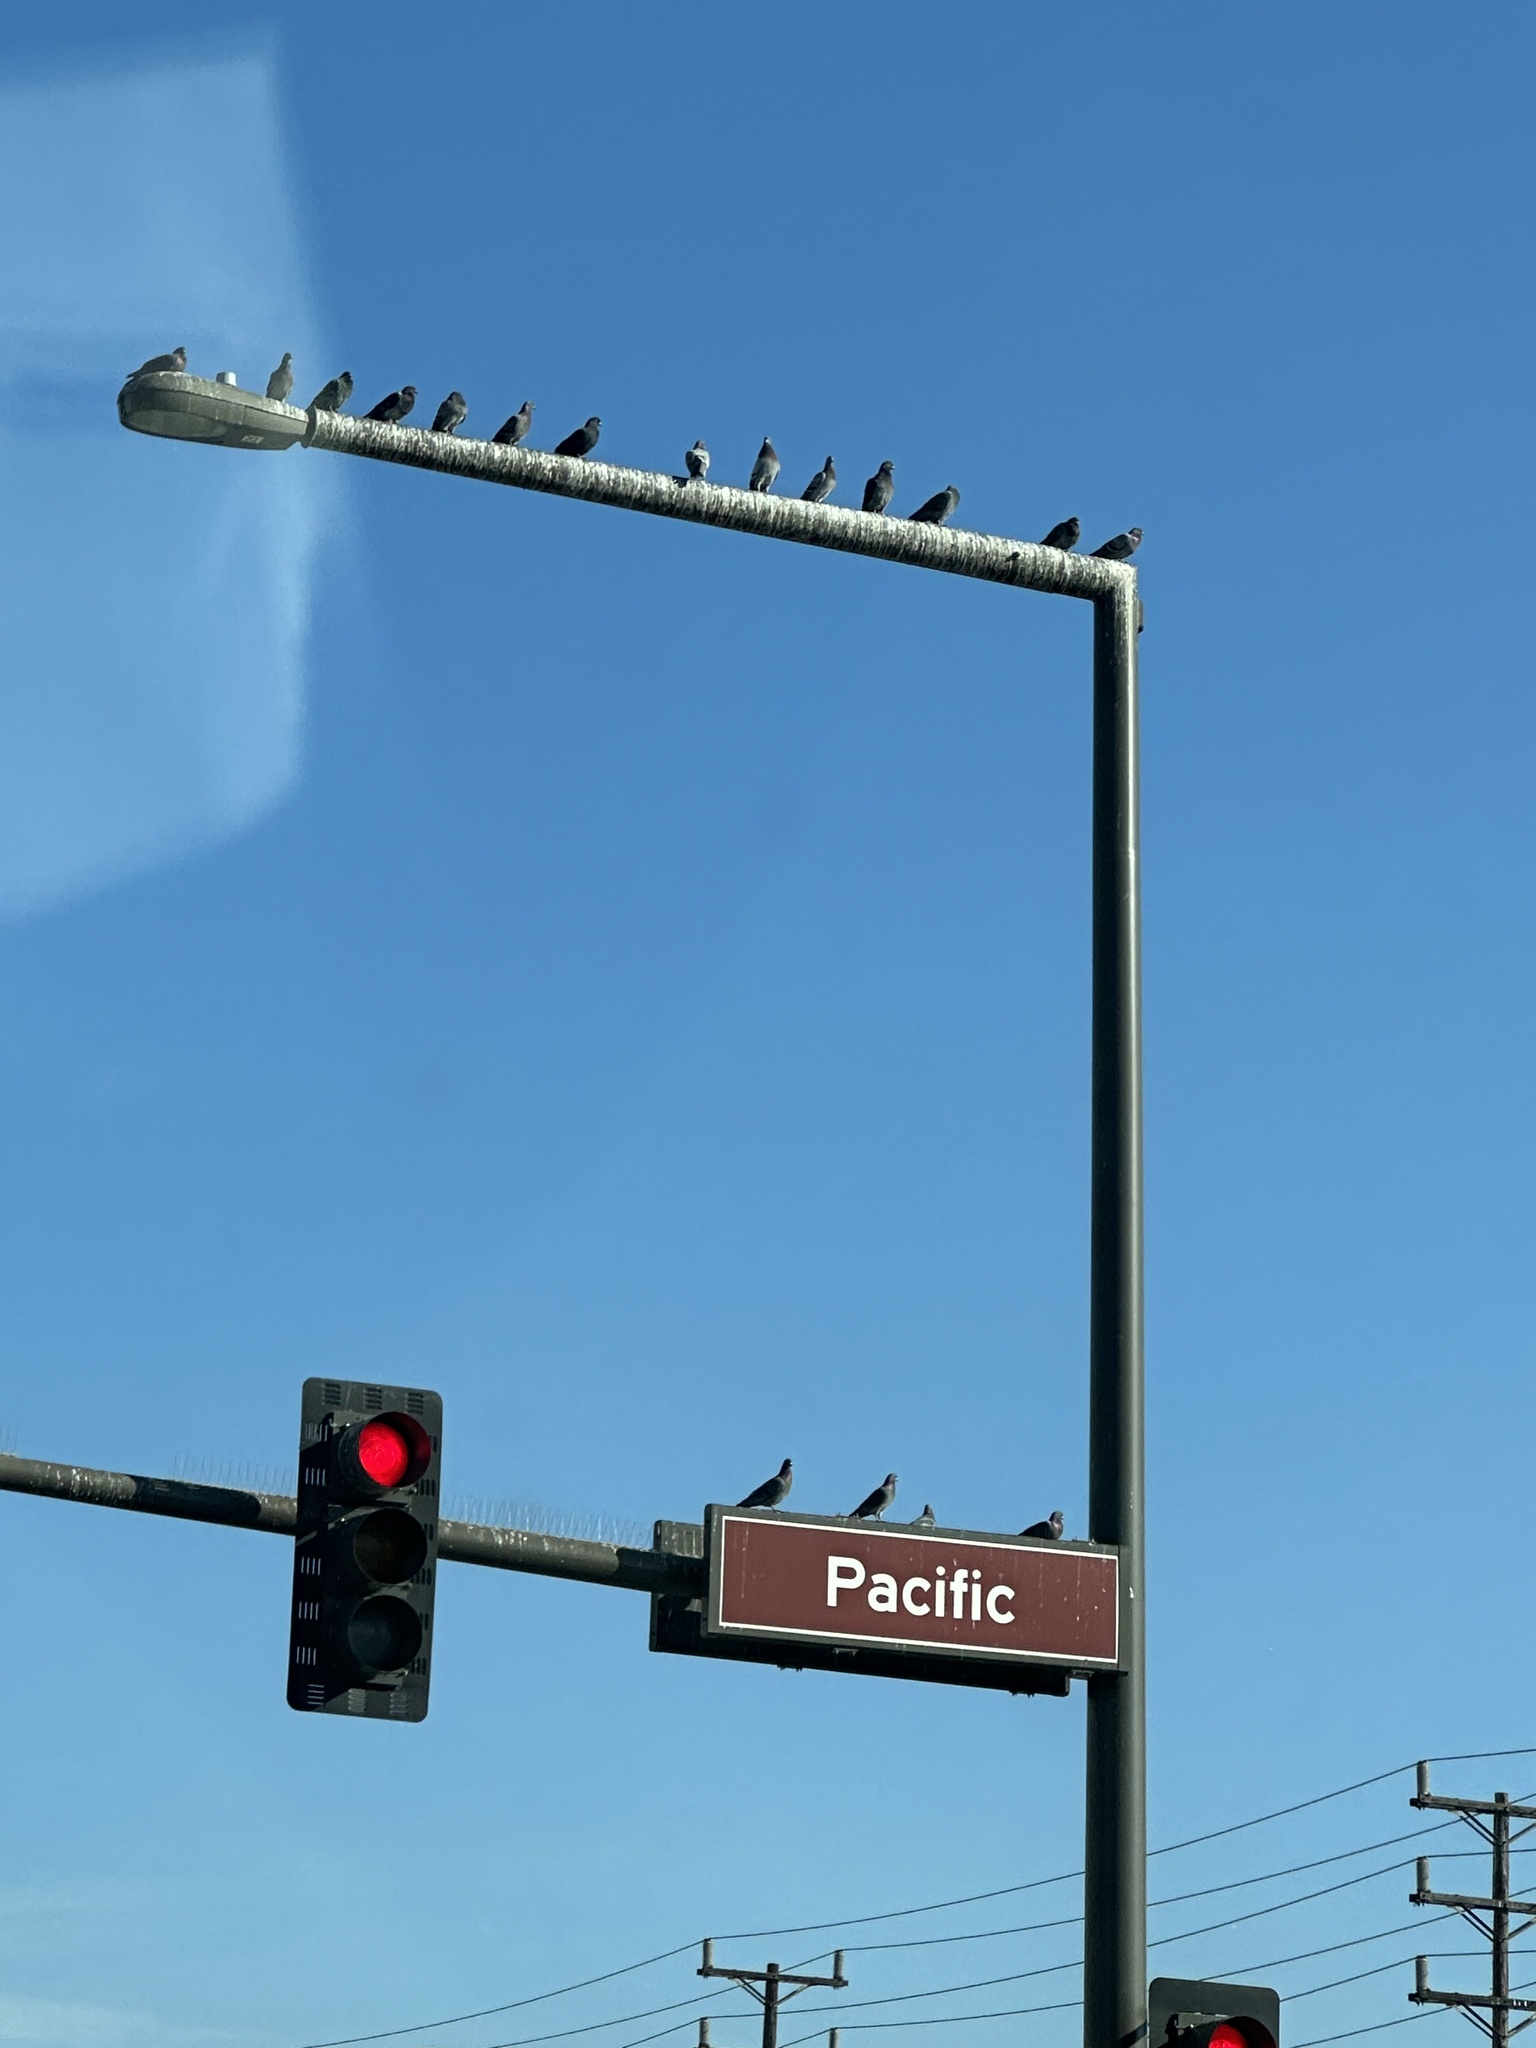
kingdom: Animalia
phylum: Chordata
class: Aves
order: Columbiformes
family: Columbidae
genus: Columba
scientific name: Columba livia
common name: Rock pigeon
